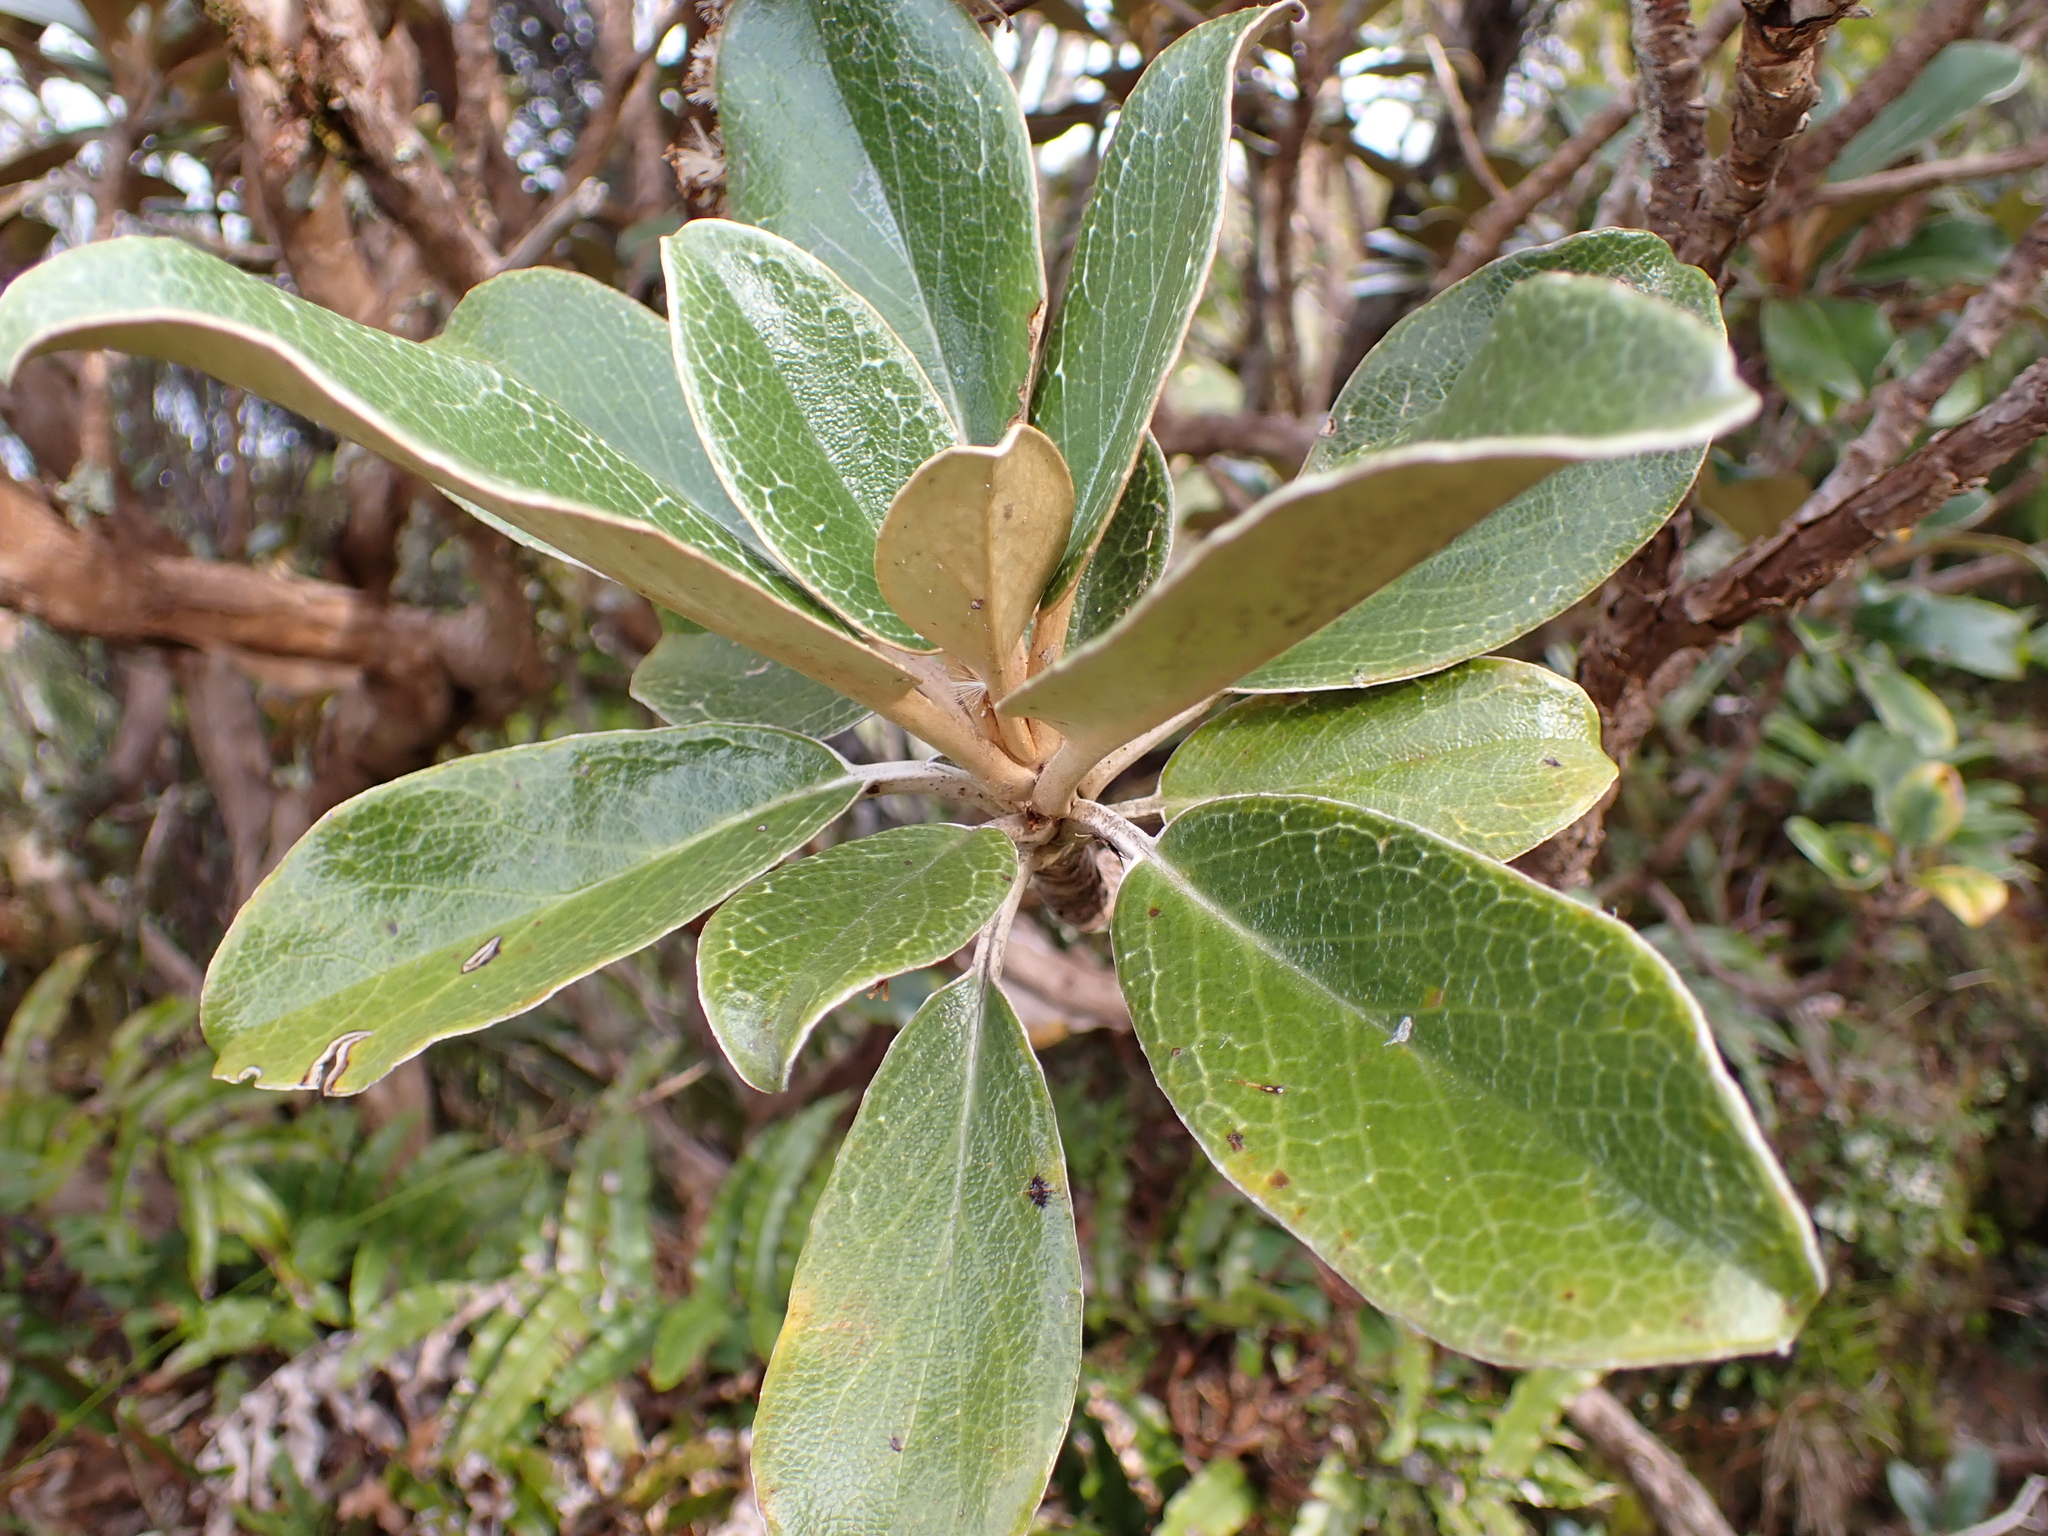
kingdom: Plantae
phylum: Tracheophyta
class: Magnoliopsida
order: Asterales
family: Asteraceae
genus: Brachyglottis
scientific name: Brachyglottis elaeagnifolia
